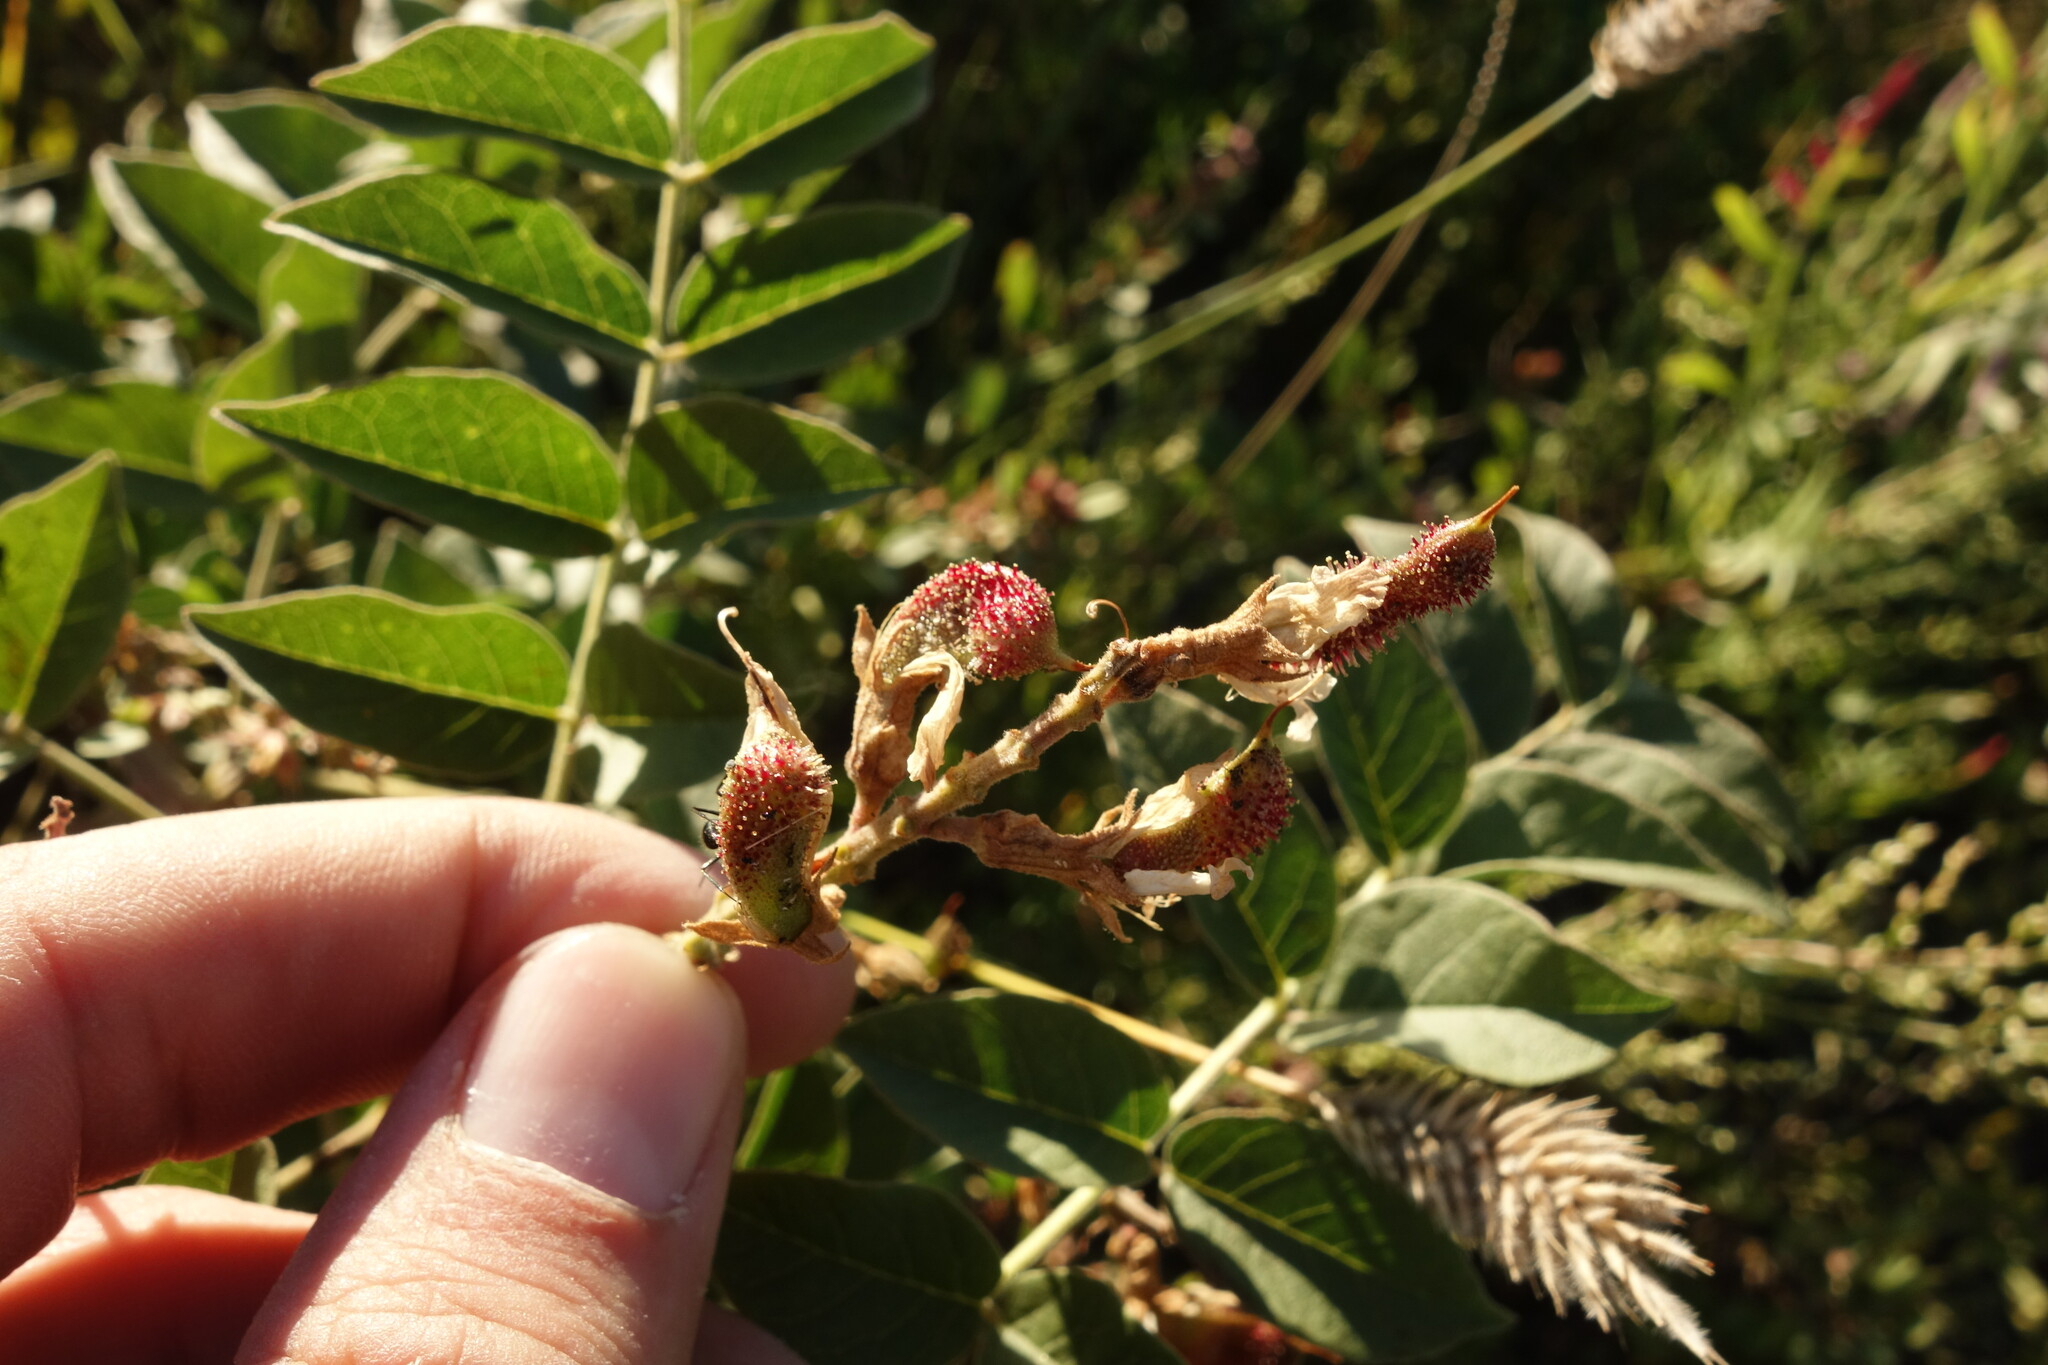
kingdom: Plantae
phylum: Tracheophyta
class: Magnoliopsida
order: Fabales
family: Fabaceae
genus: Glycyrrhiza
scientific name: Glycyrrhiza uralensis
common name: Chinese licorice
